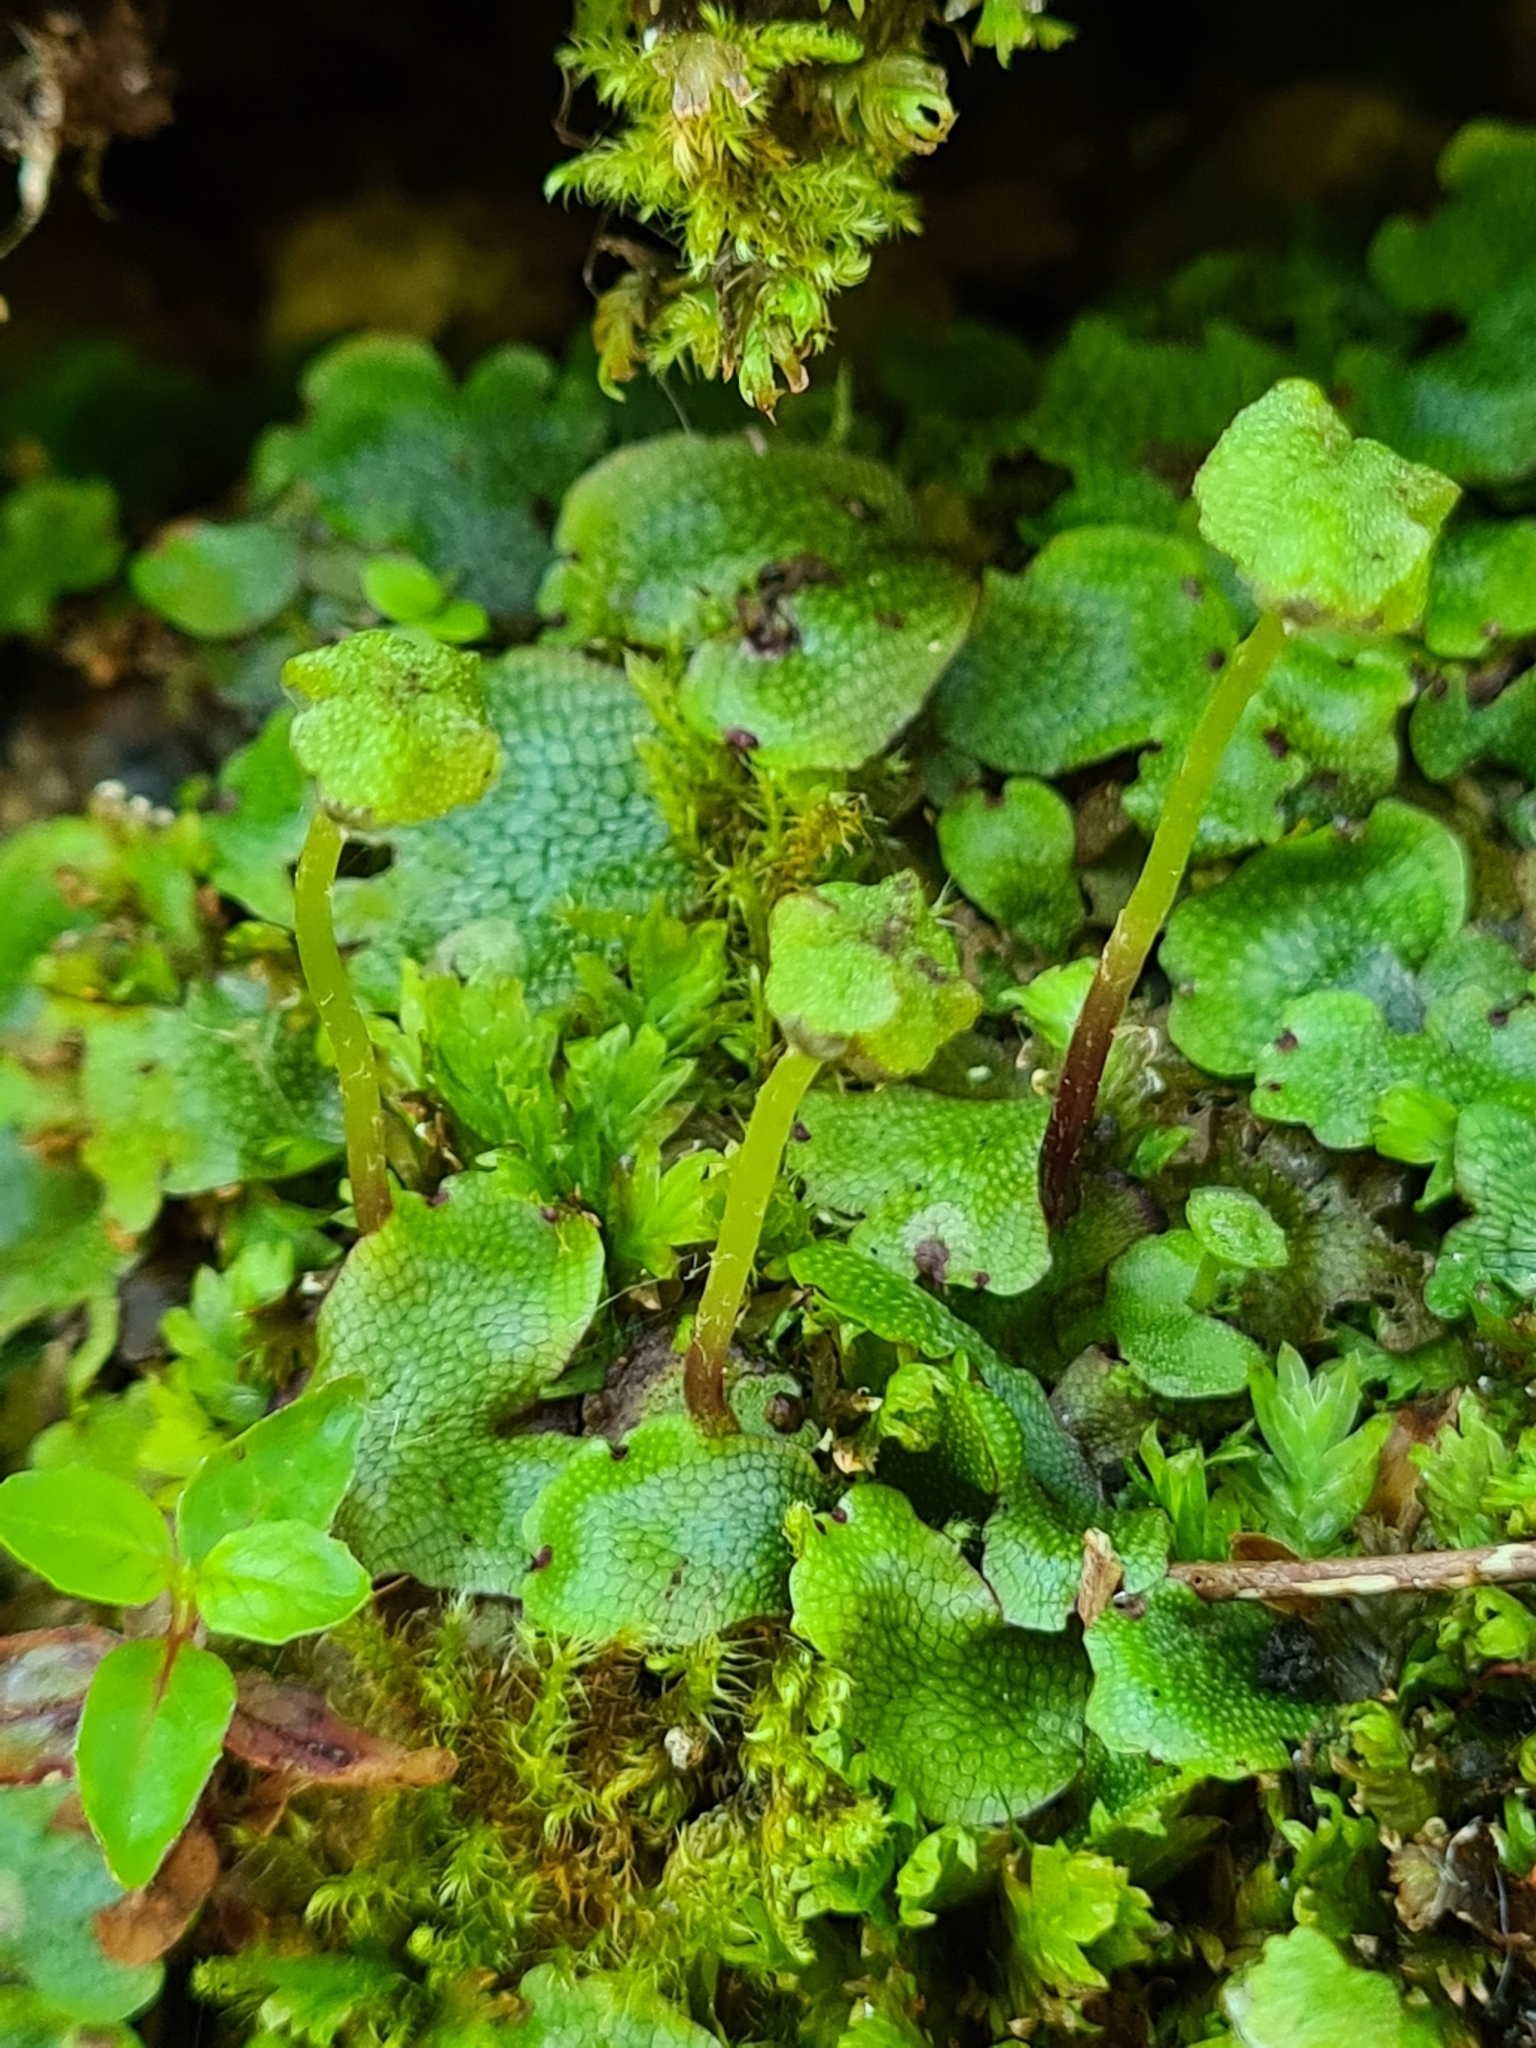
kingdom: Plantae
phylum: Marchantiophyta
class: Marchantiopsida
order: Marchantiales
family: Marchantiaceae
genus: Marchantia
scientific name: Marchantia quadrata
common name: Narrow mushroom-headed liverwort
